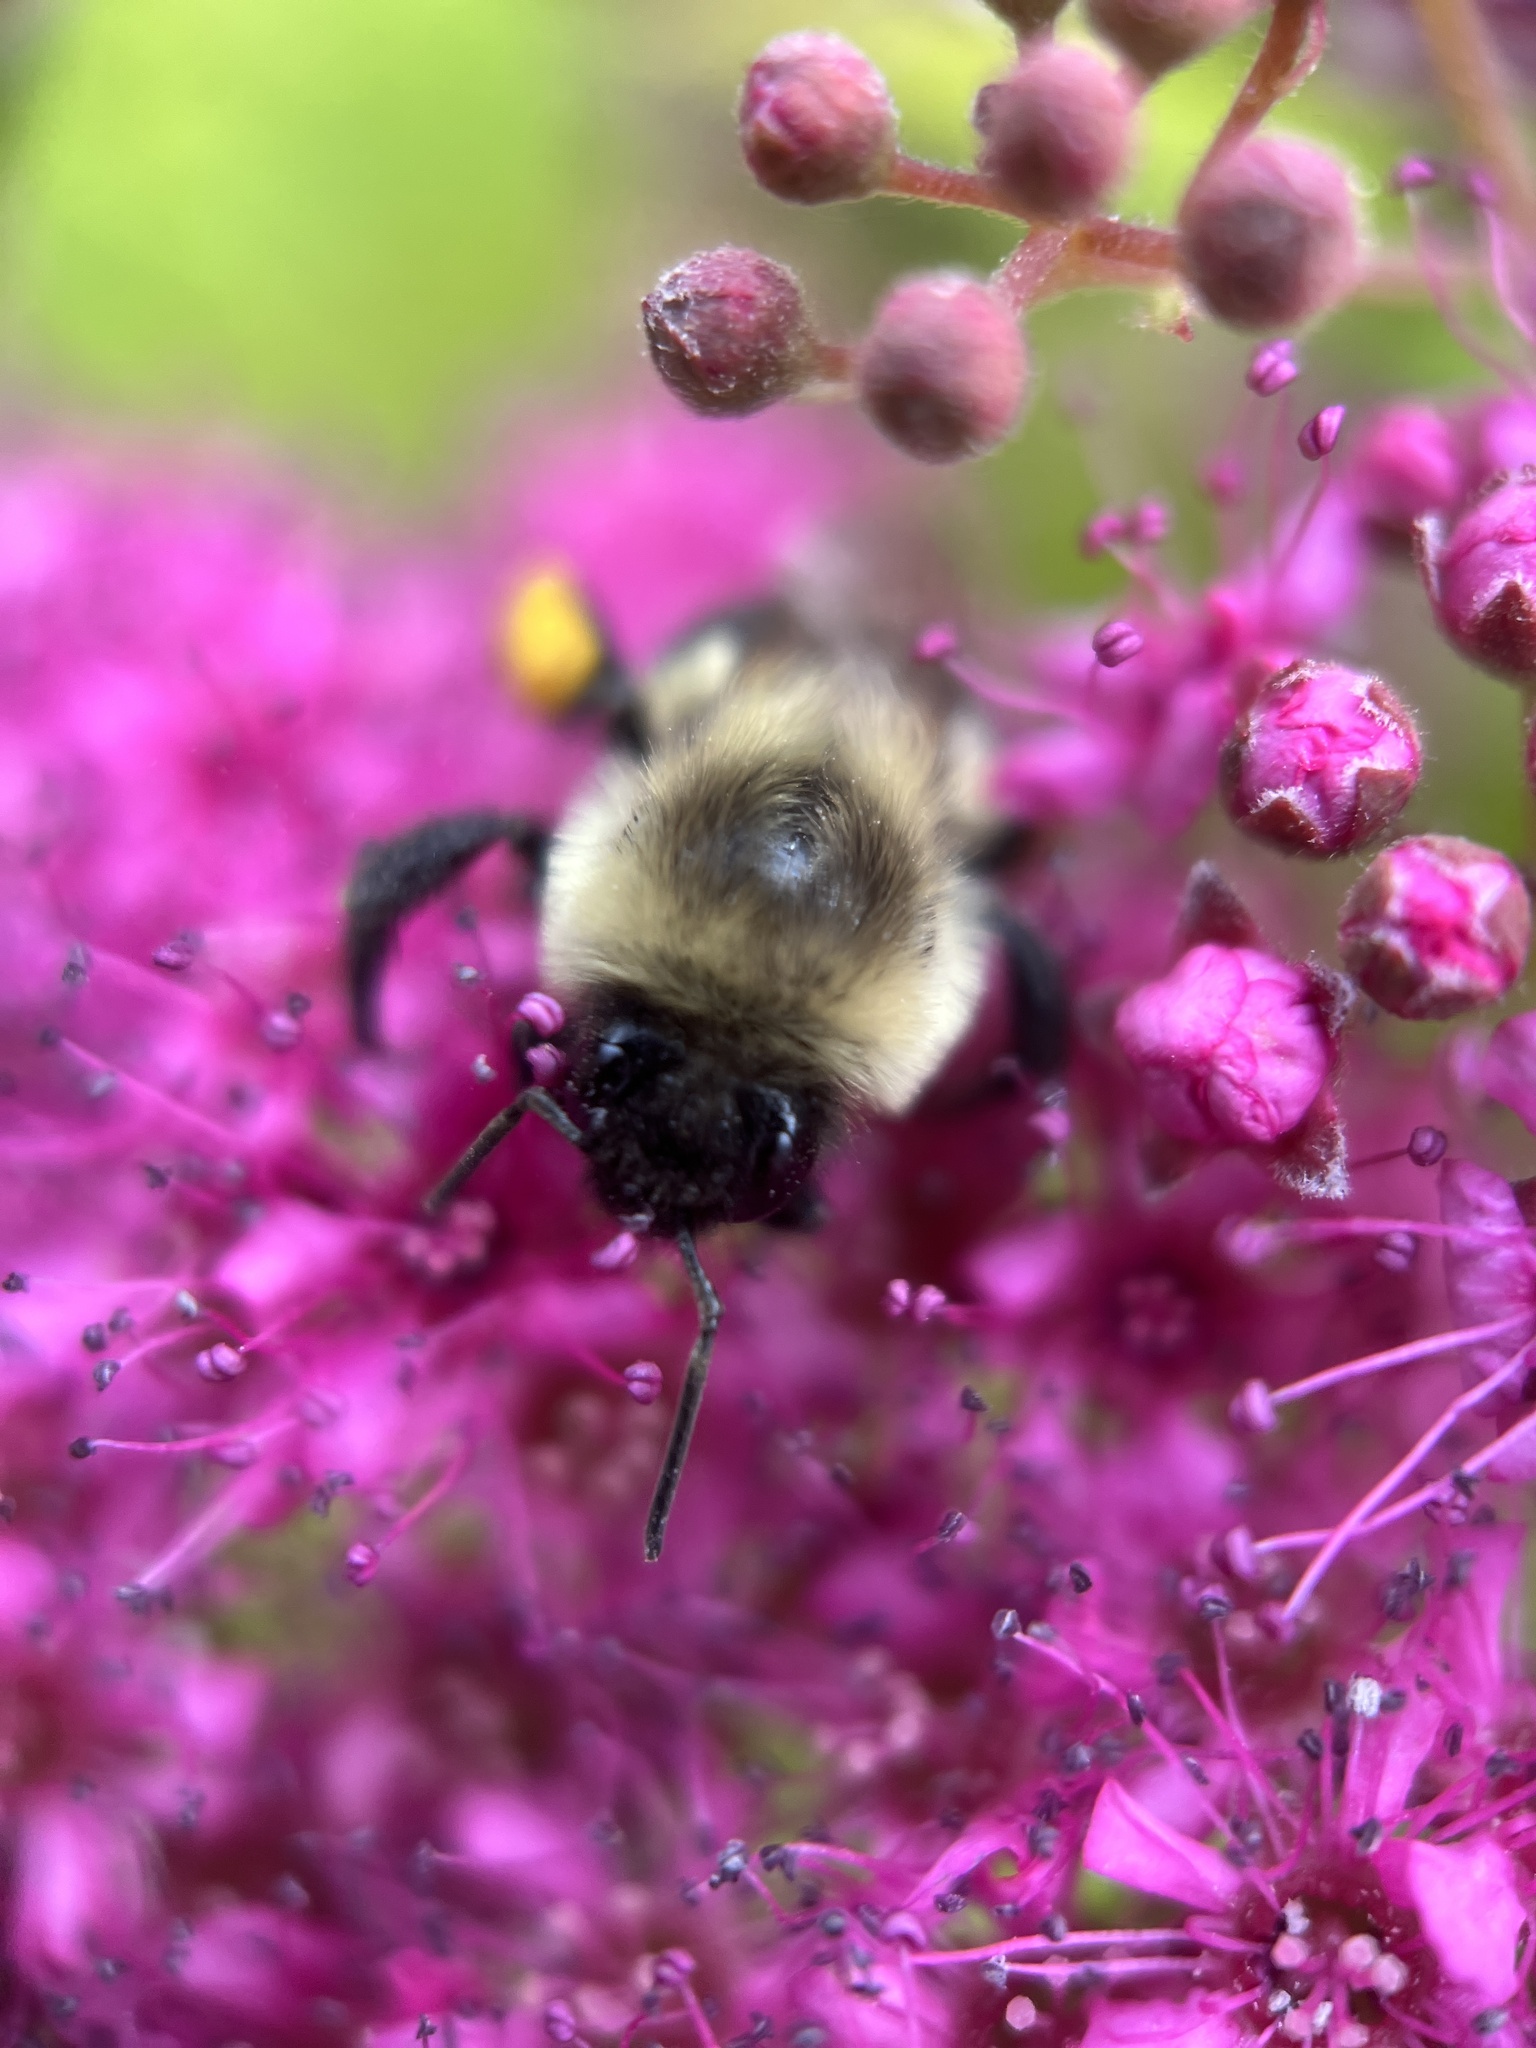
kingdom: Animalia
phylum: Arthropoda
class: Insecta
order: Hymenoptera
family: Apidae
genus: Bombus
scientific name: Bombus impatiens
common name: Common eastern bumble bee
